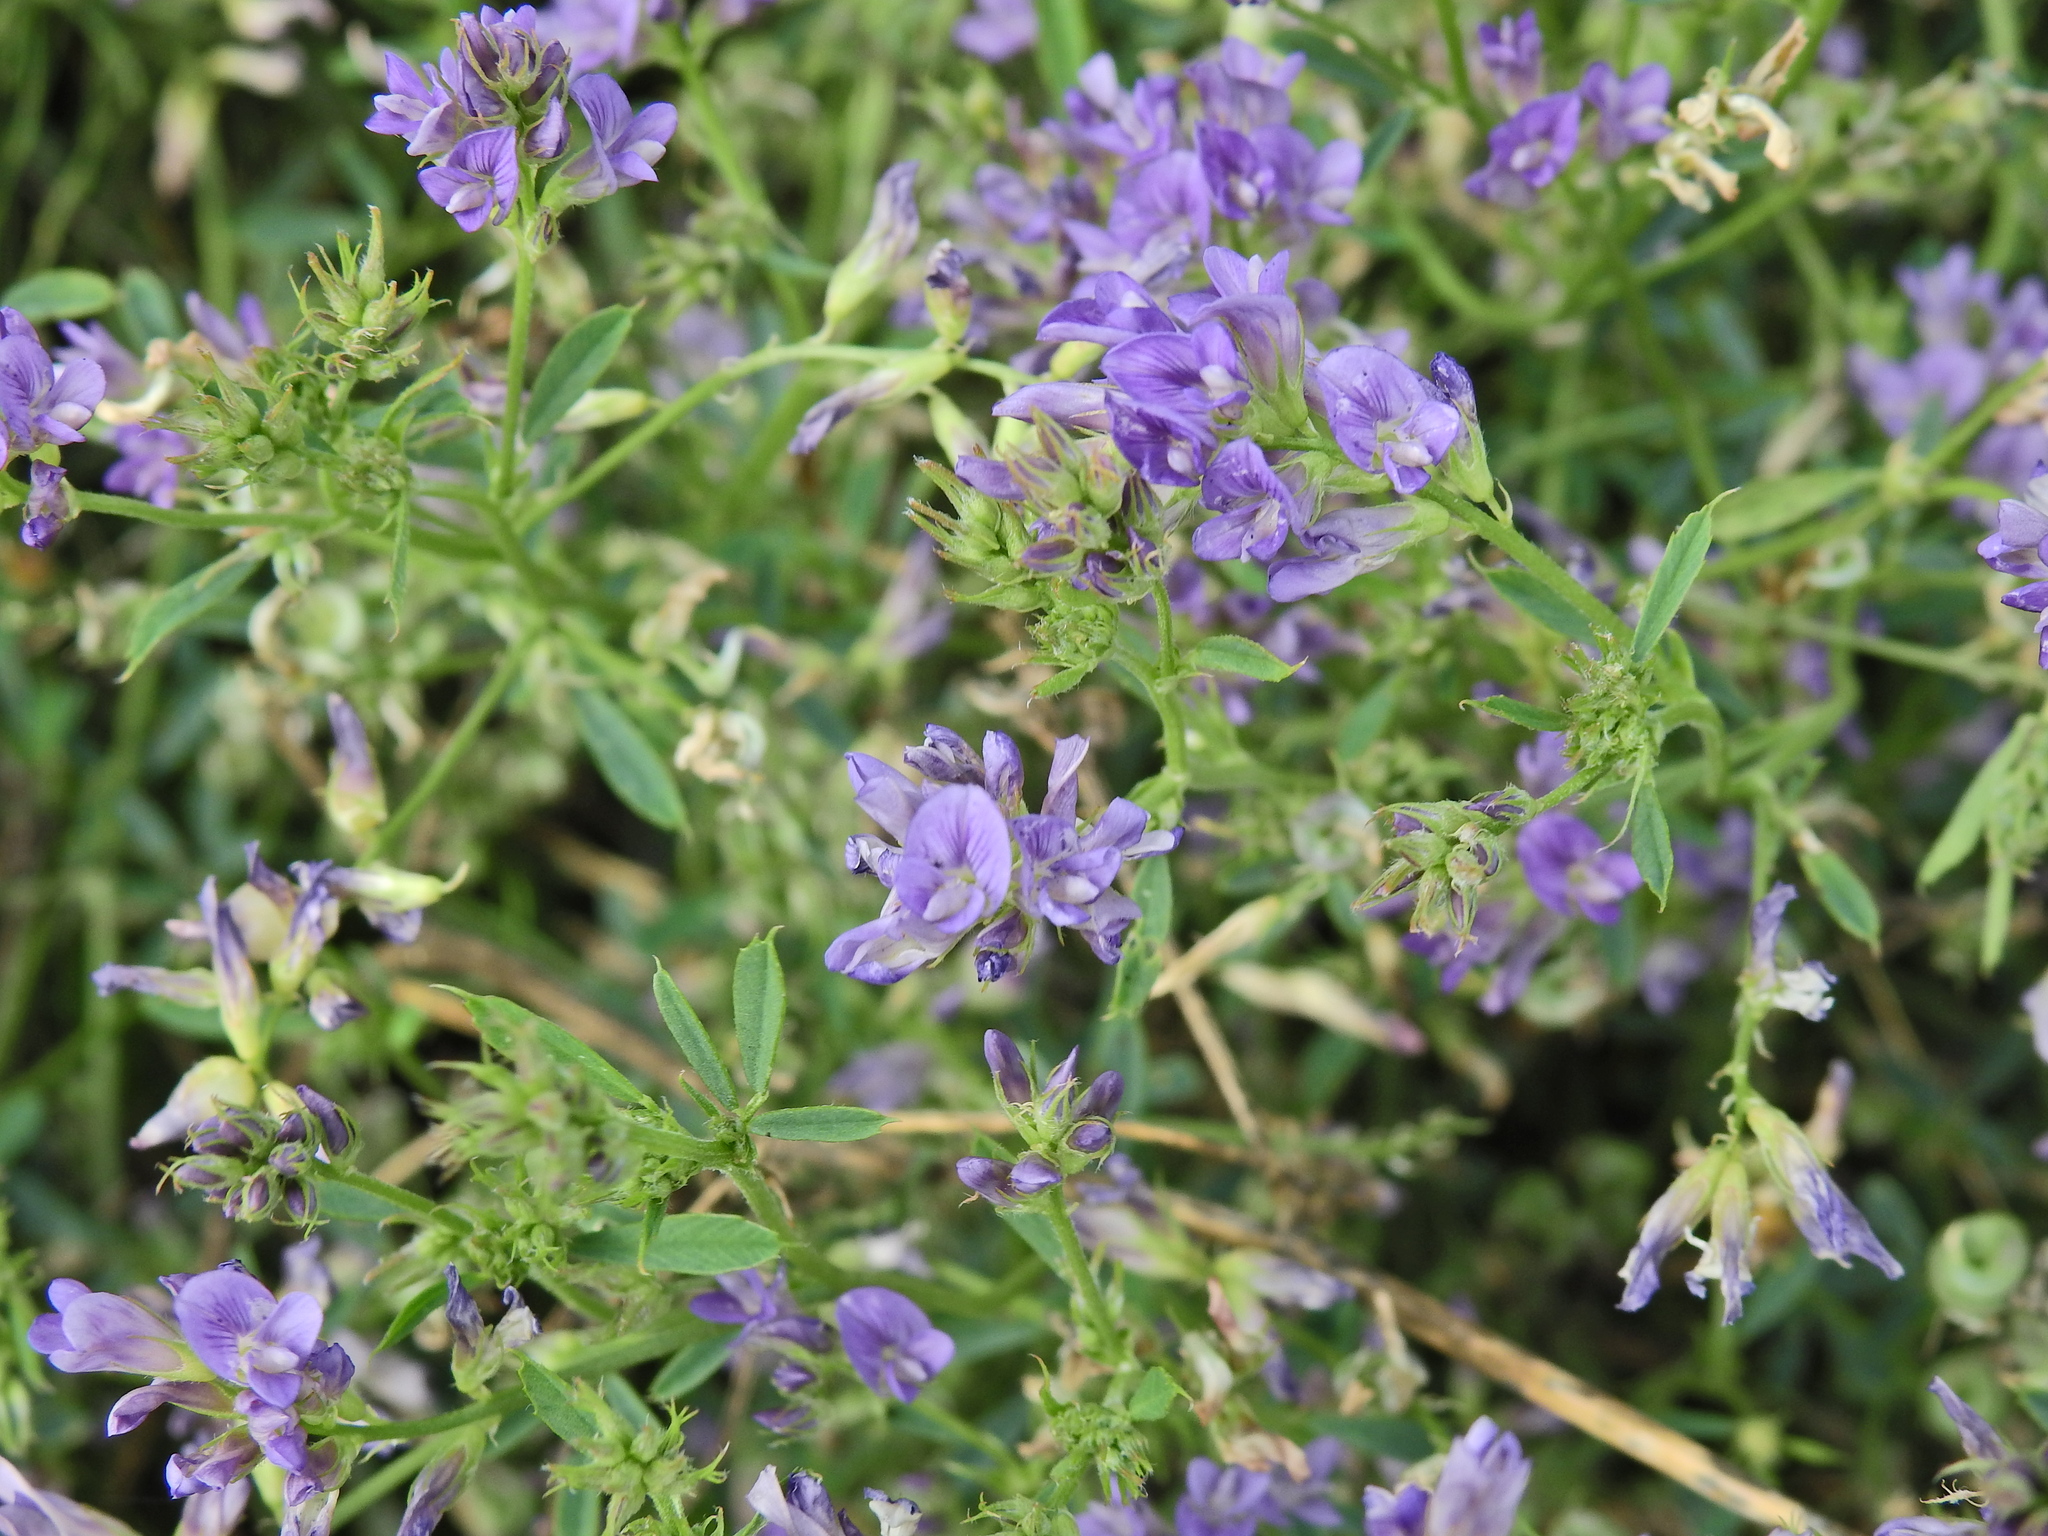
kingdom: Plantae
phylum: Tracheophyta
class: Magnoliopsida
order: Fabales
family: Fabaceae
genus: Medicago
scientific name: Medicago sativa
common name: Alfalfa
